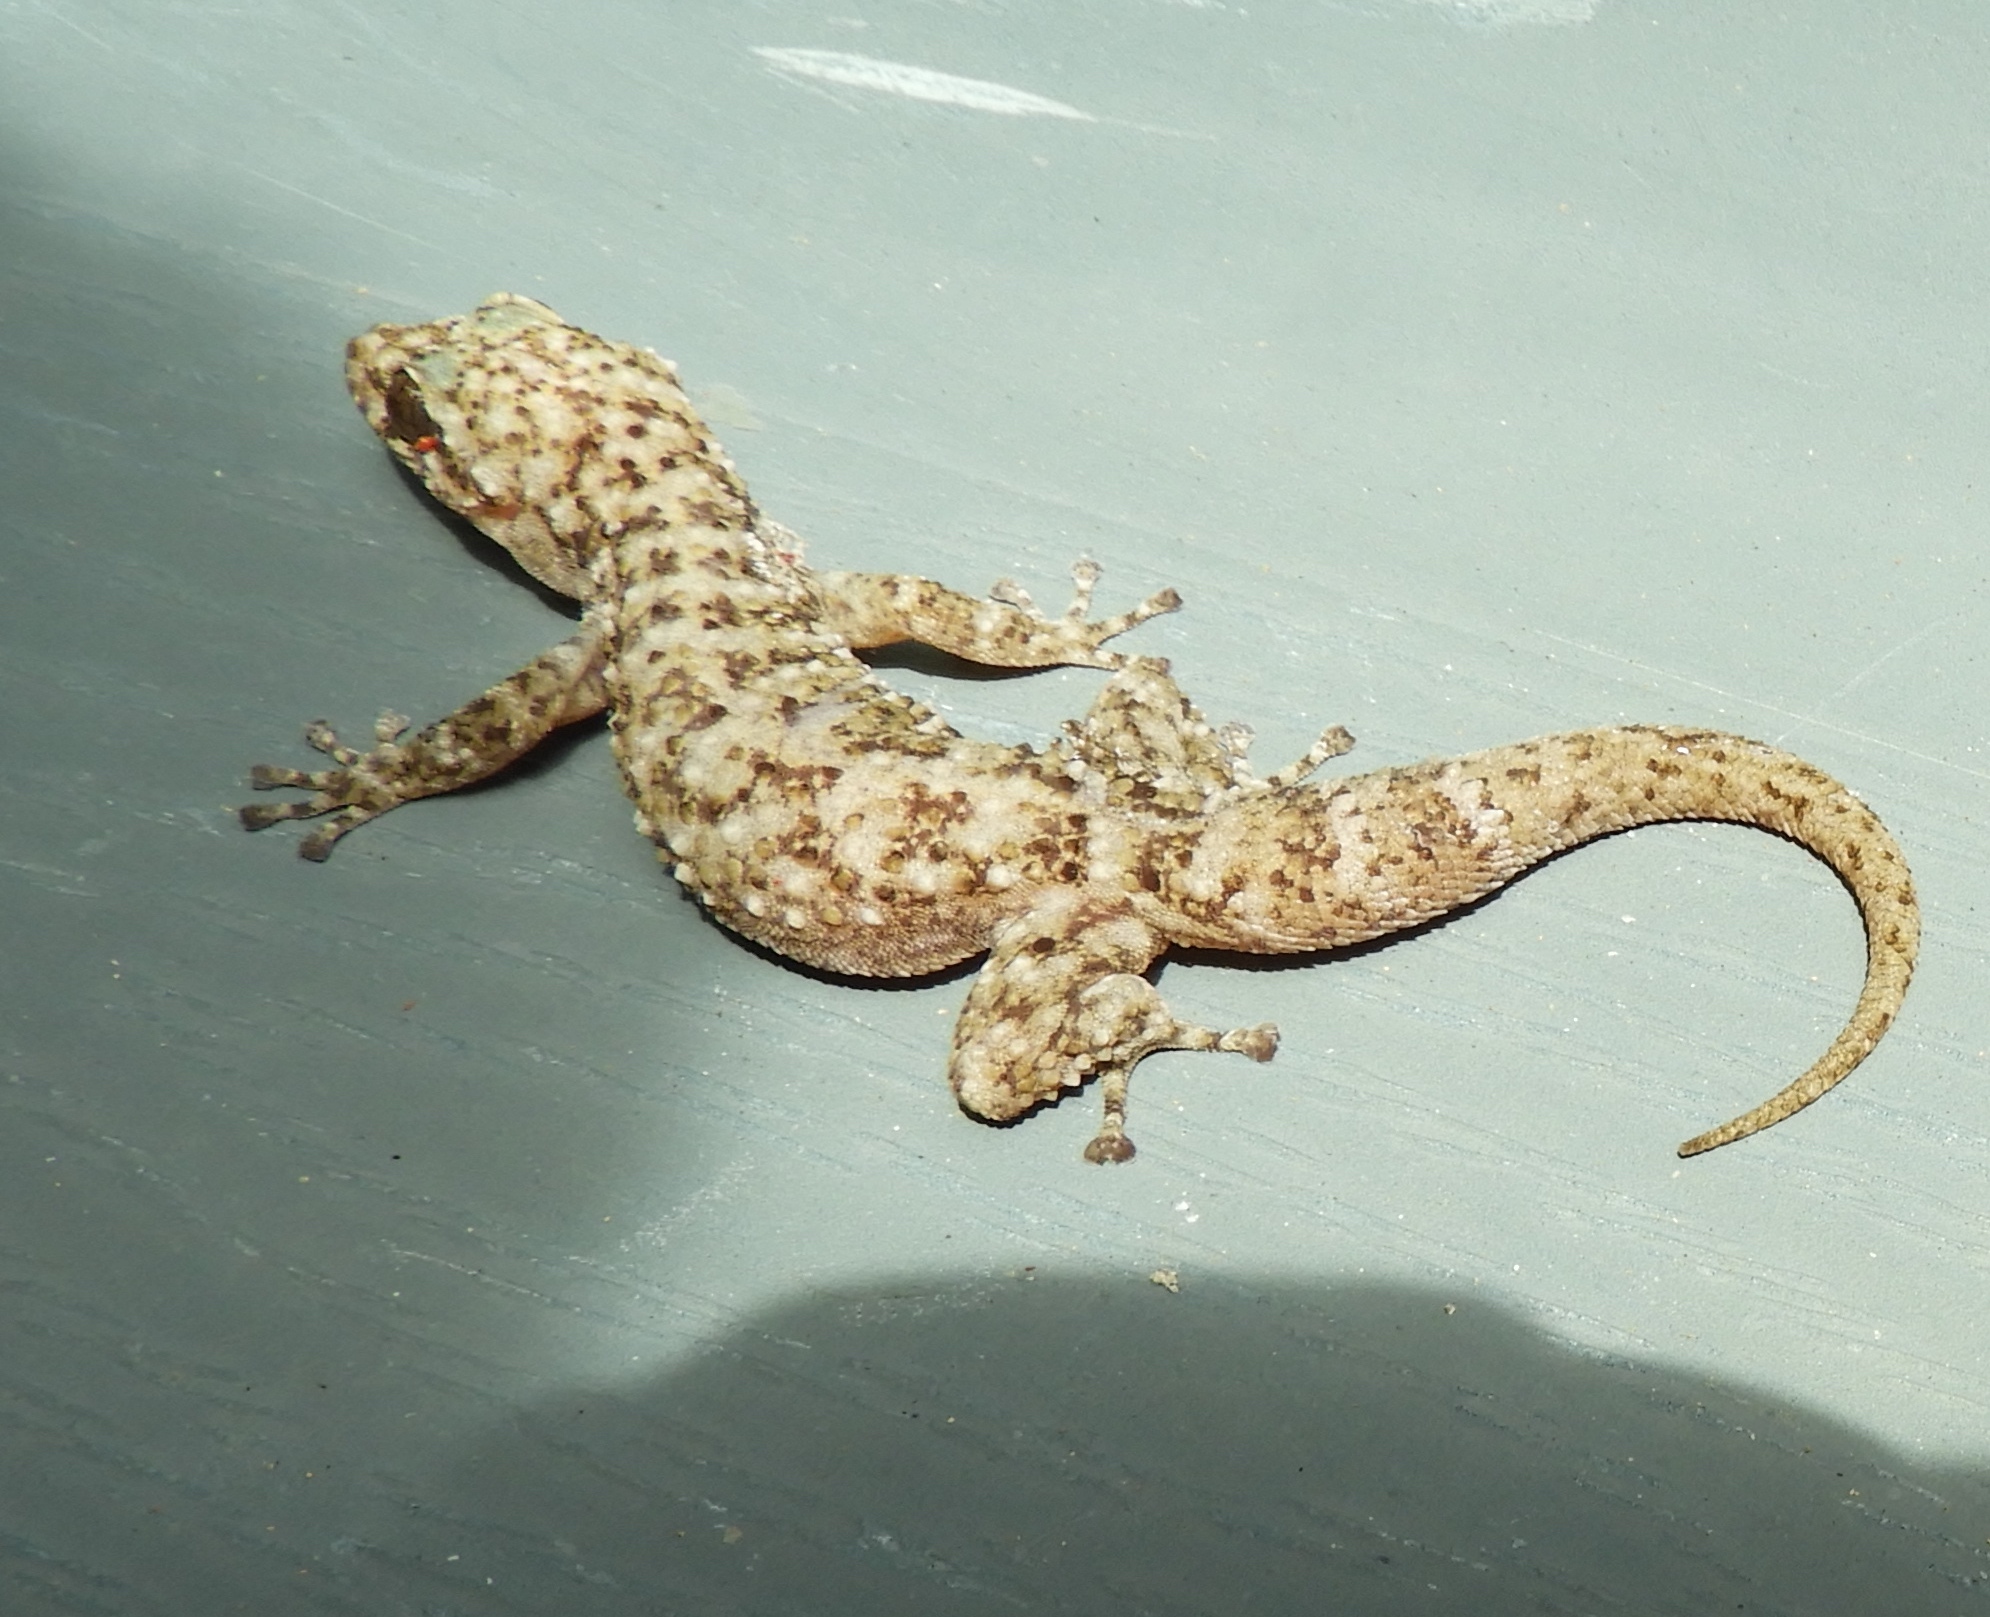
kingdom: Animalia
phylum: Chordata
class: Squamata
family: Phyllodactylidae
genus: Phyllodactylus
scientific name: Phyllodactylus
